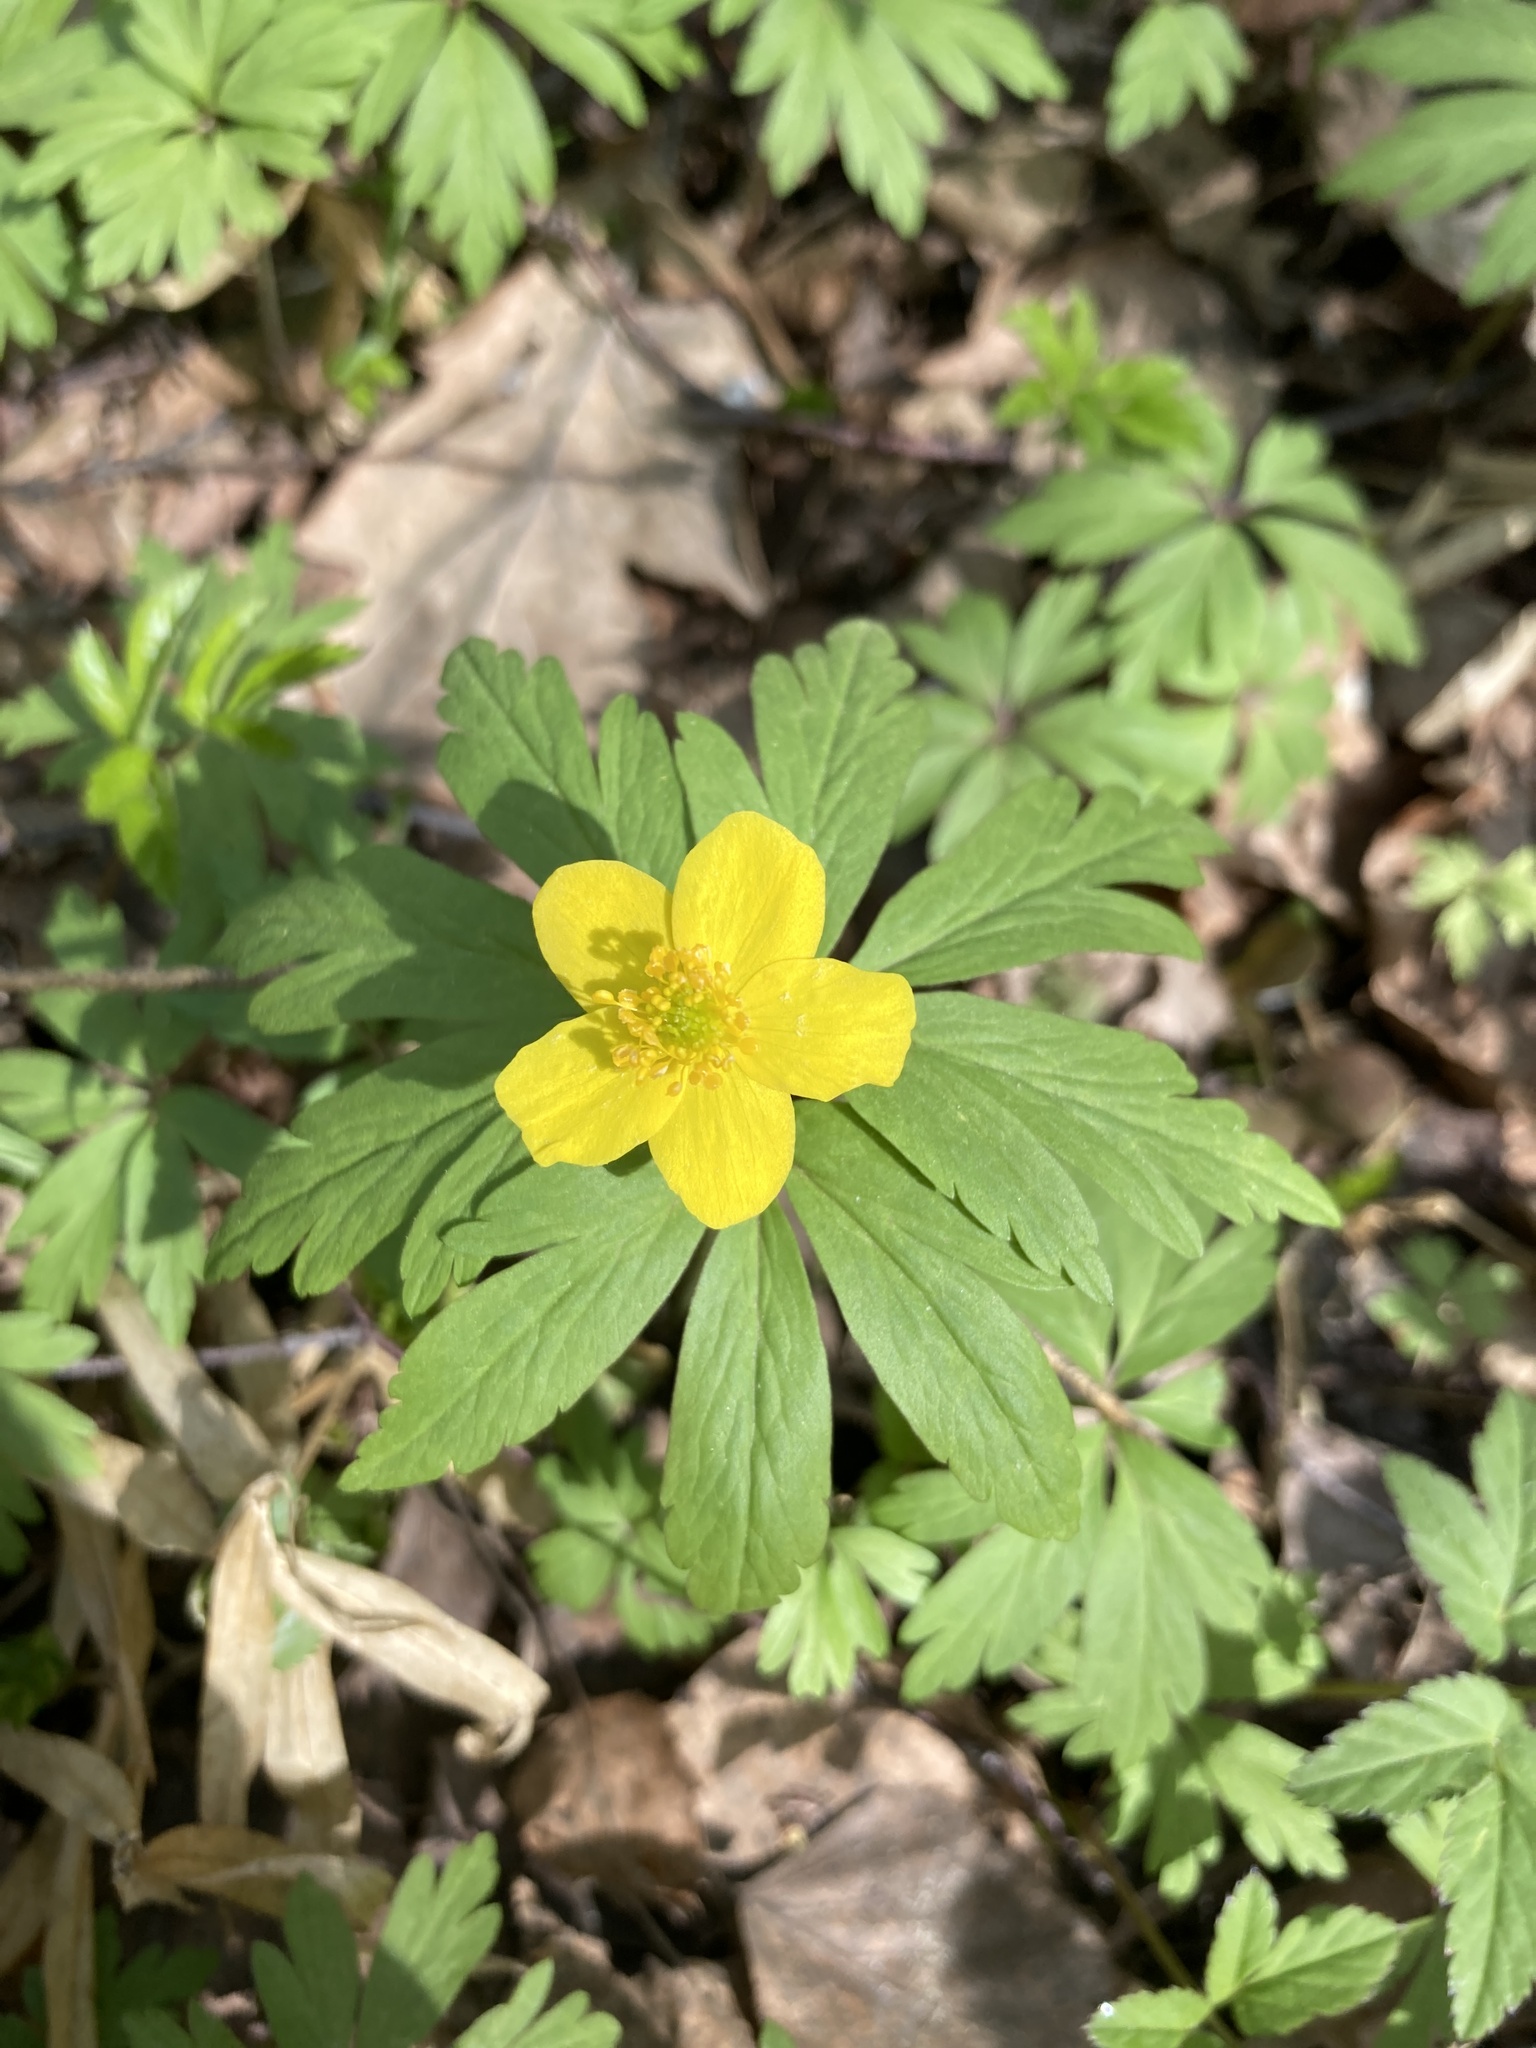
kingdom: Plantae
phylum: Tracheophyta
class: Magnoliopsida
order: Ranunculales
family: Ranunculaceae
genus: Anemone
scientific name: Anemone ranunculoides
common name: Yellow anemone
